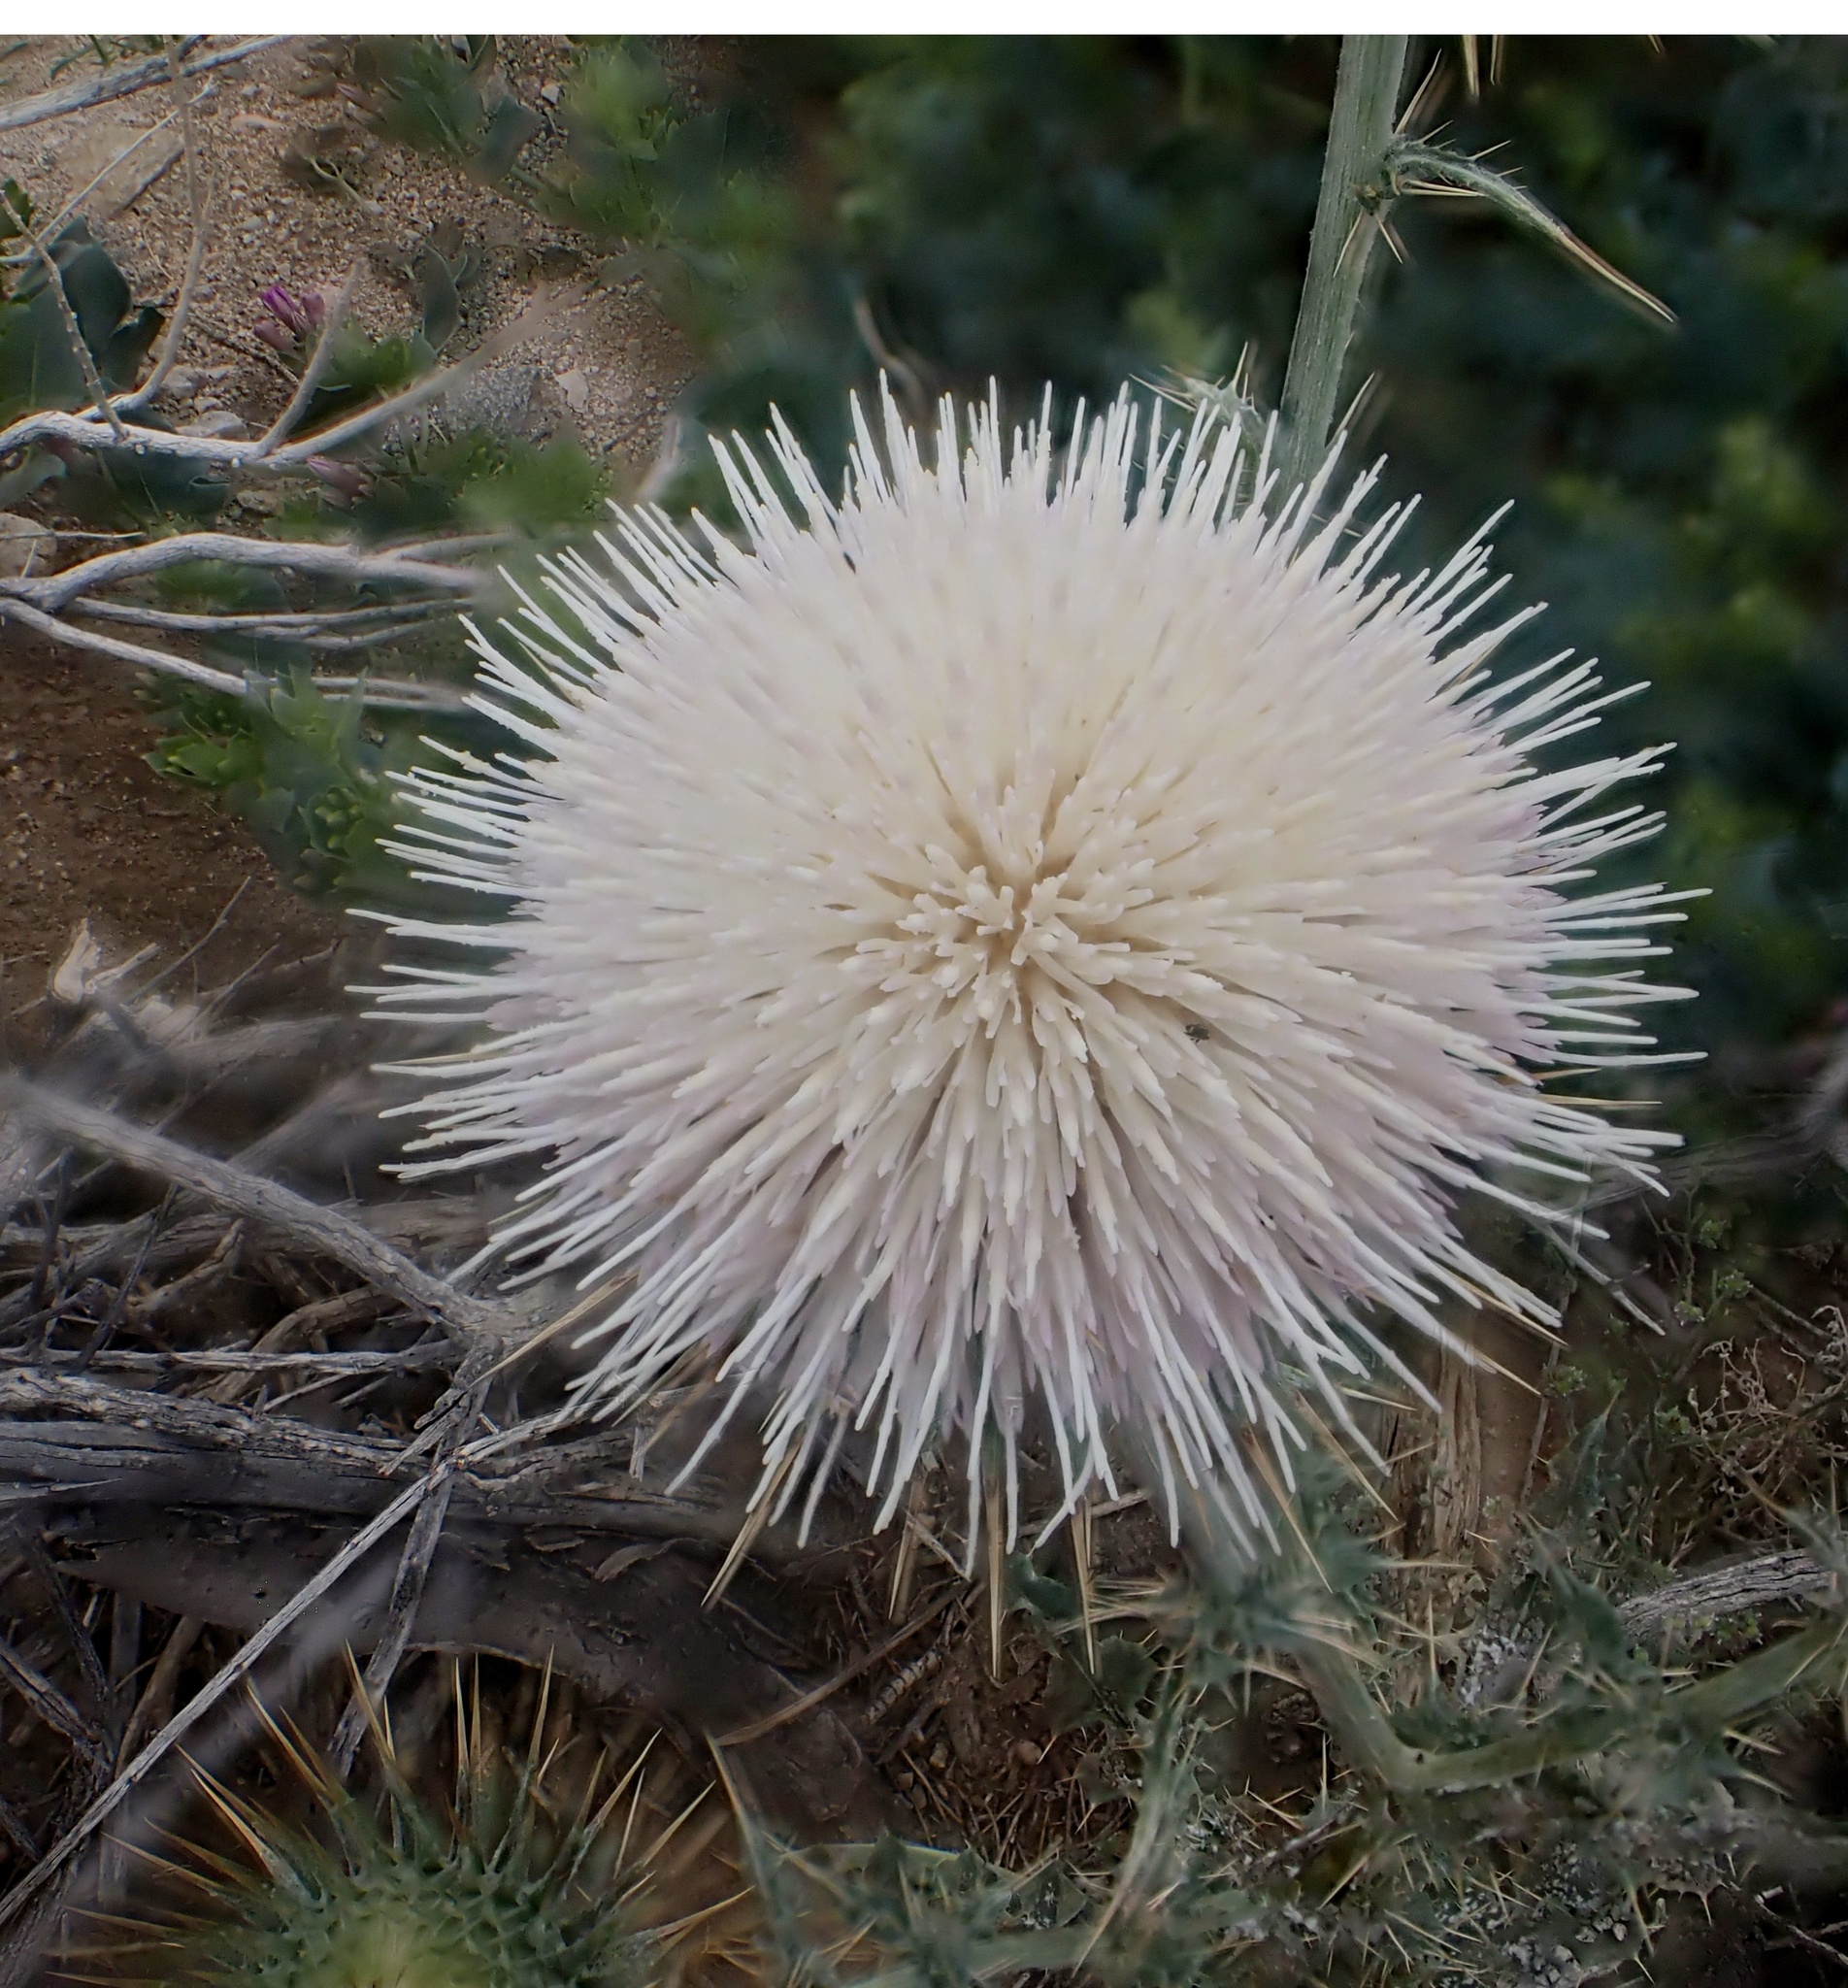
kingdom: Plantae
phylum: Tracheophyta
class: Magnoliopsida
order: Asterales
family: Asteraceae
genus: Cirsium
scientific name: Cirsium neomexicanum
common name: New mexico thistle
